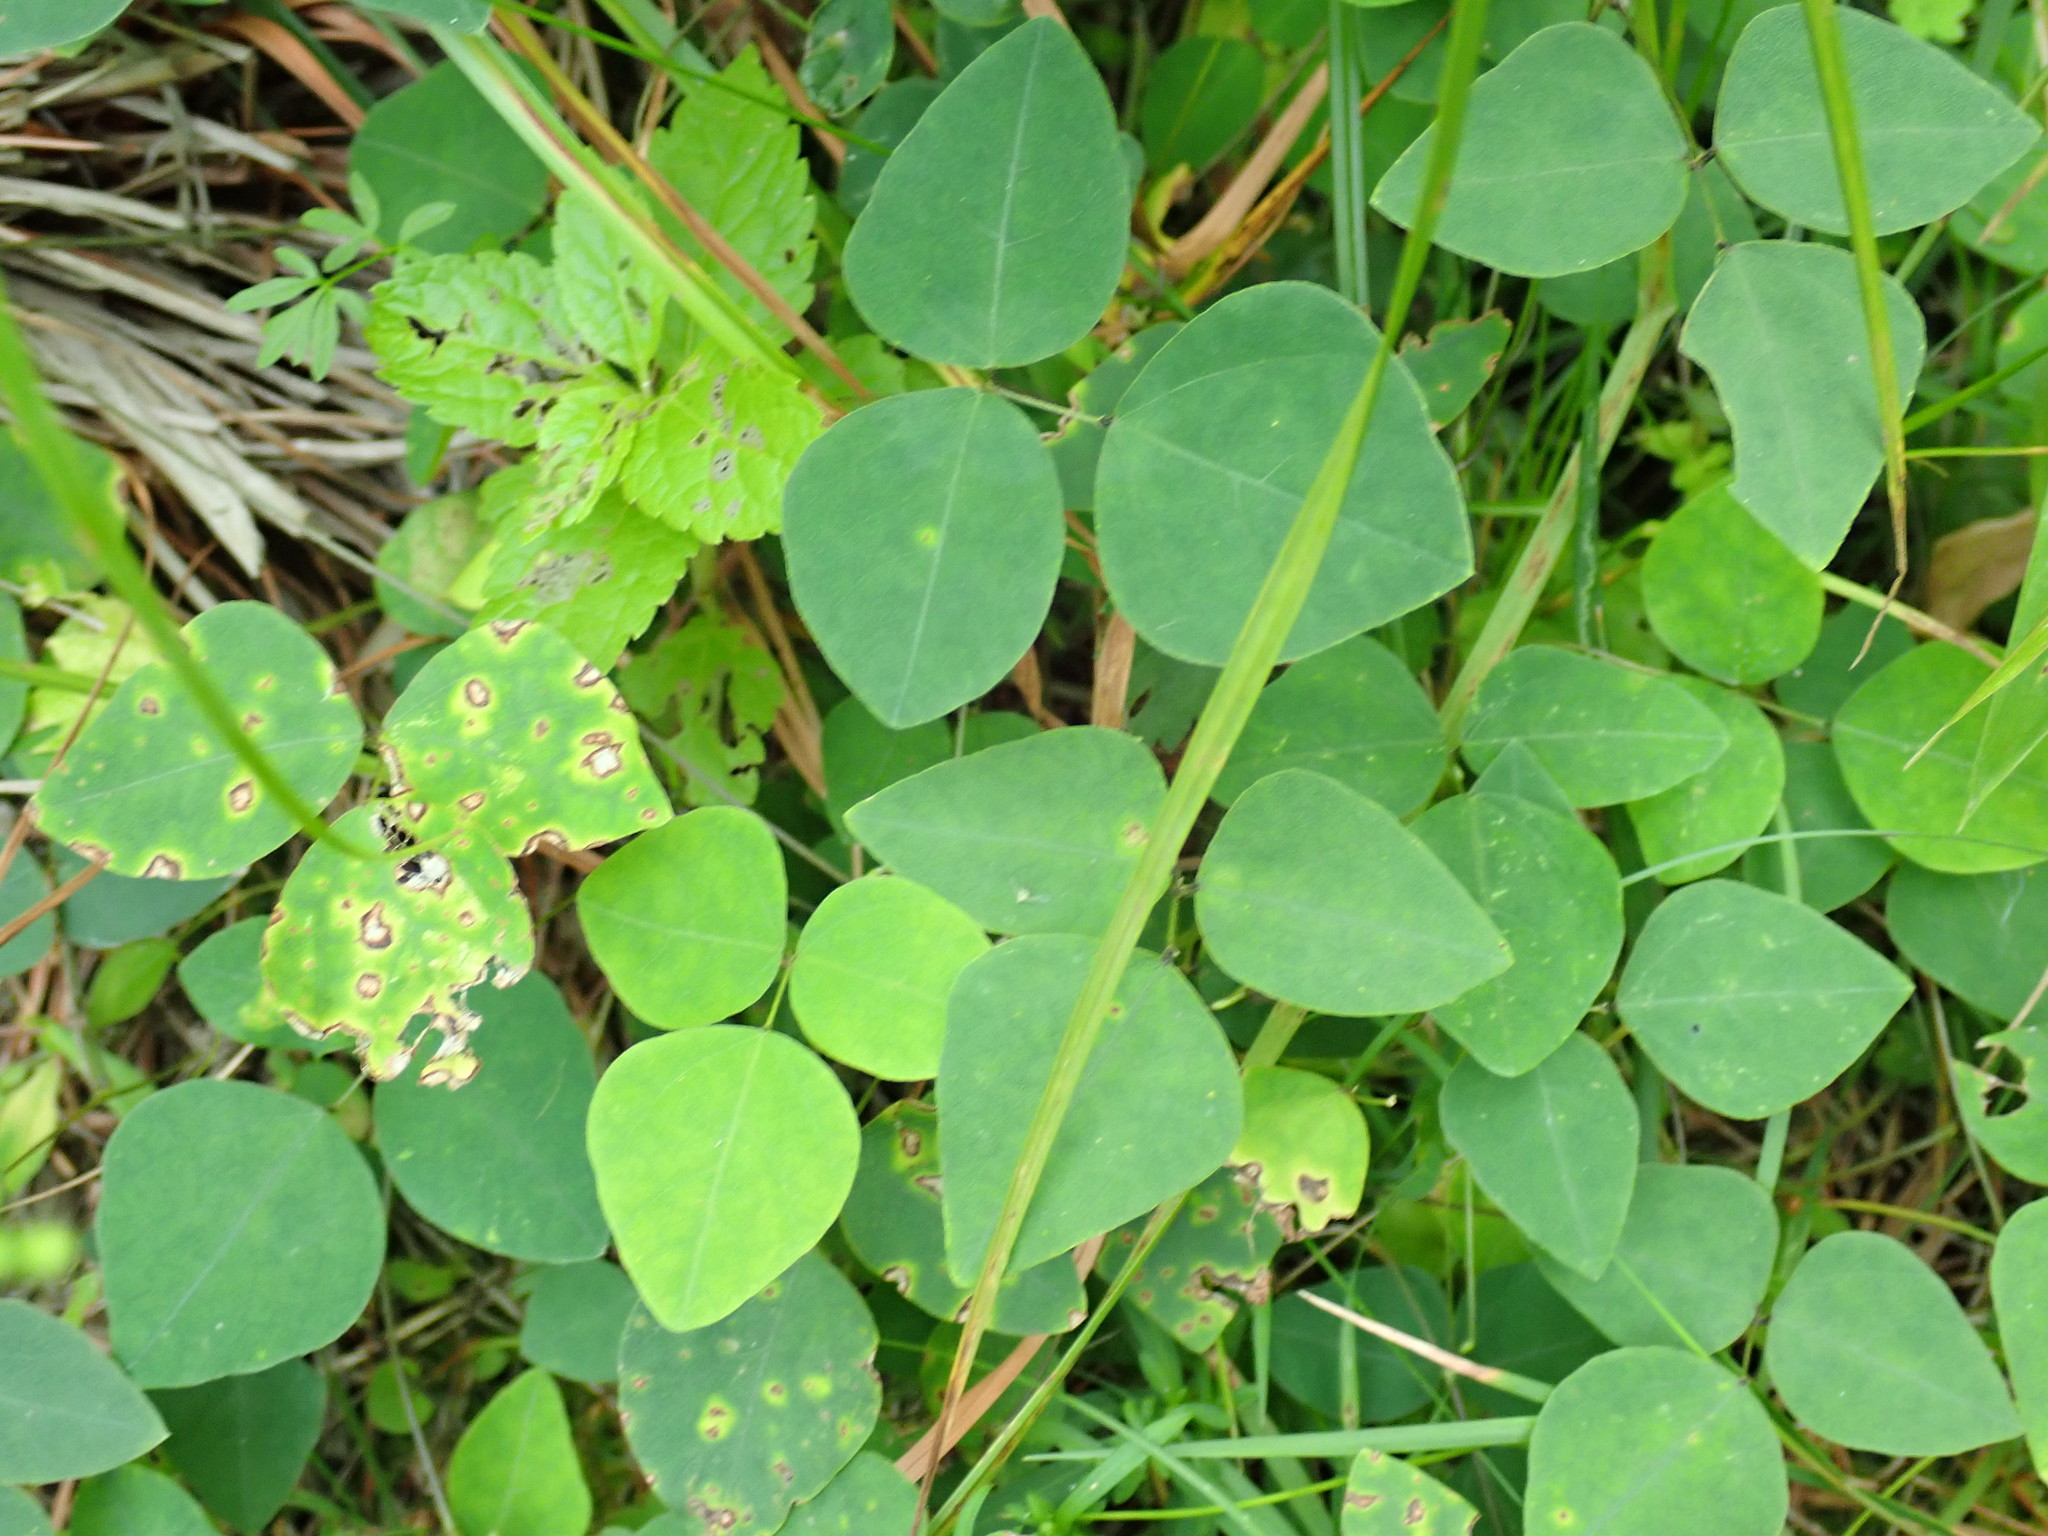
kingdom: Plantae
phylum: Tracheophyta
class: Magnoliopsida
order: Fabales
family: Fabaceae
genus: Amphicarpaea
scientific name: Amphicarpaea bracteata
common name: American hog peanut
